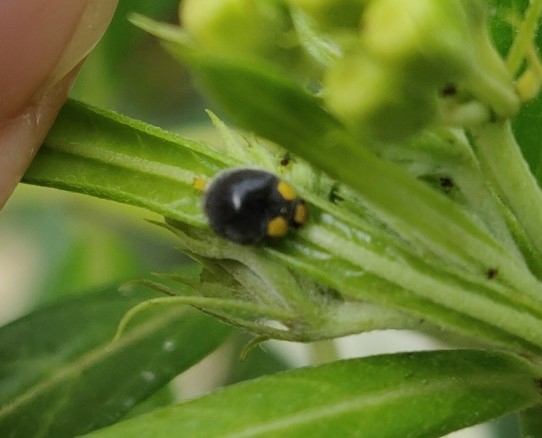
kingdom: Animalia
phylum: Arthropoda
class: Insecta
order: Coleoptera
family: Coccinellidae
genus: Scymnodes
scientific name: Scymnodes lividigaster
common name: Yellowshouldered lady beetle
